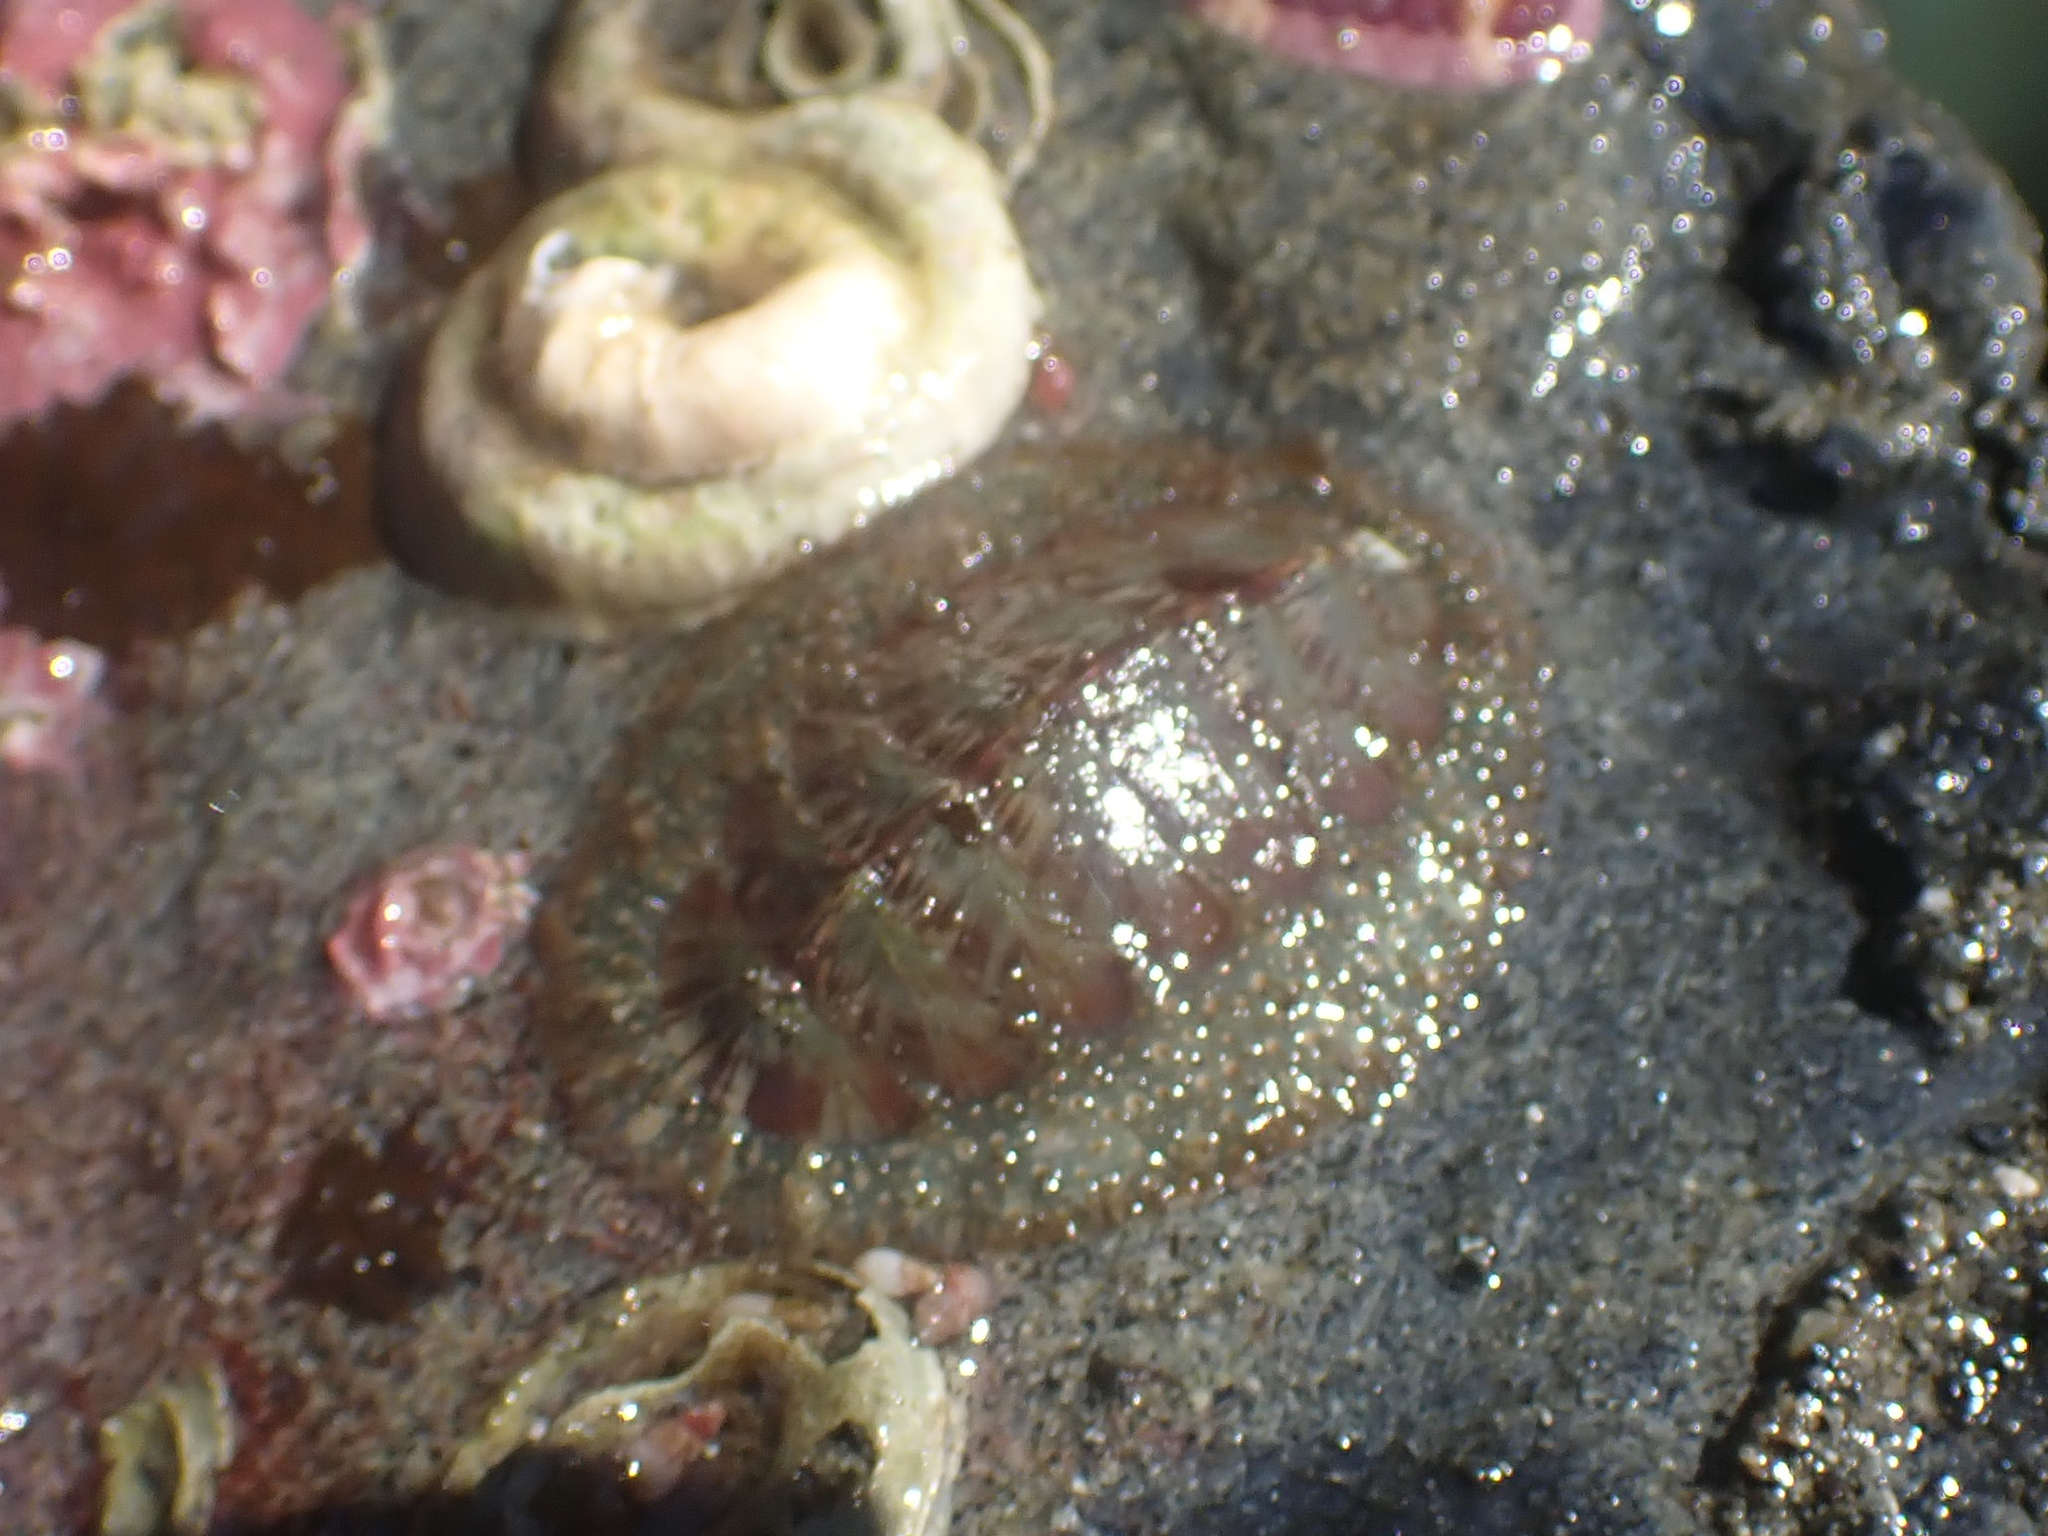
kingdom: Animalia
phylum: Mollusca
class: Polyplacophora
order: Chitonida
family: Mopaliidae
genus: Mopalia
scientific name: Mopalia lignosa
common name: Woody chiton
